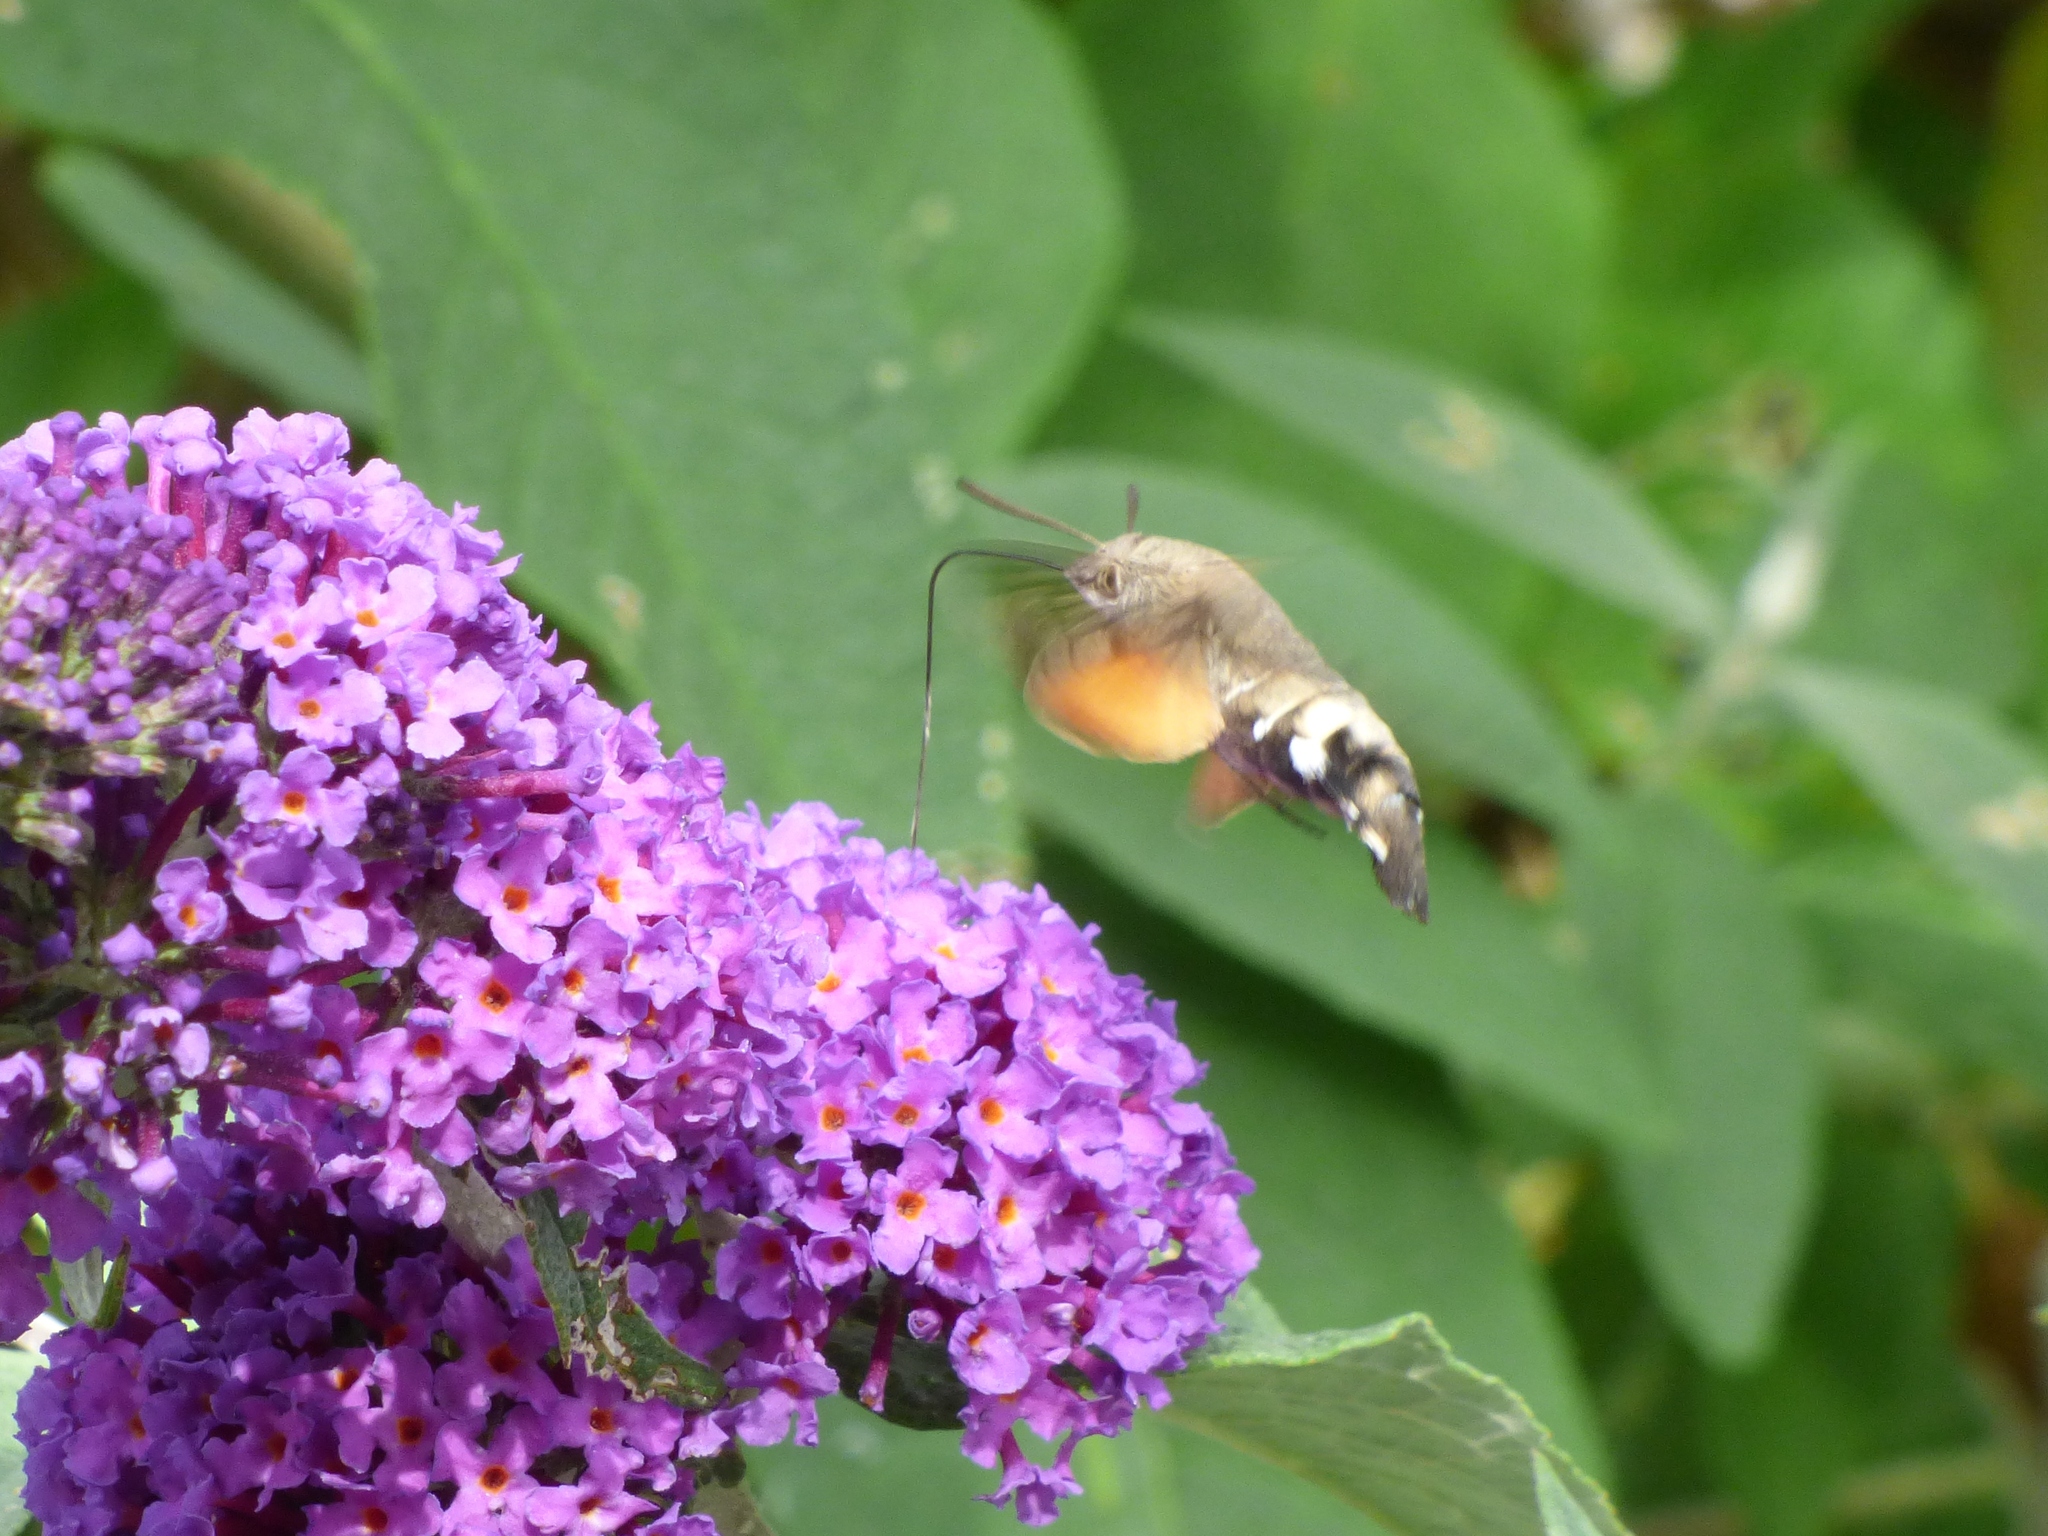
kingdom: Animalia
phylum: Arthropoda
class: Insecta
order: Lepidoptera
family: Sphingidae
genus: Macroglossum
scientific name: Macroglossum stellatarum
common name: Humming-bird hawk-moth
